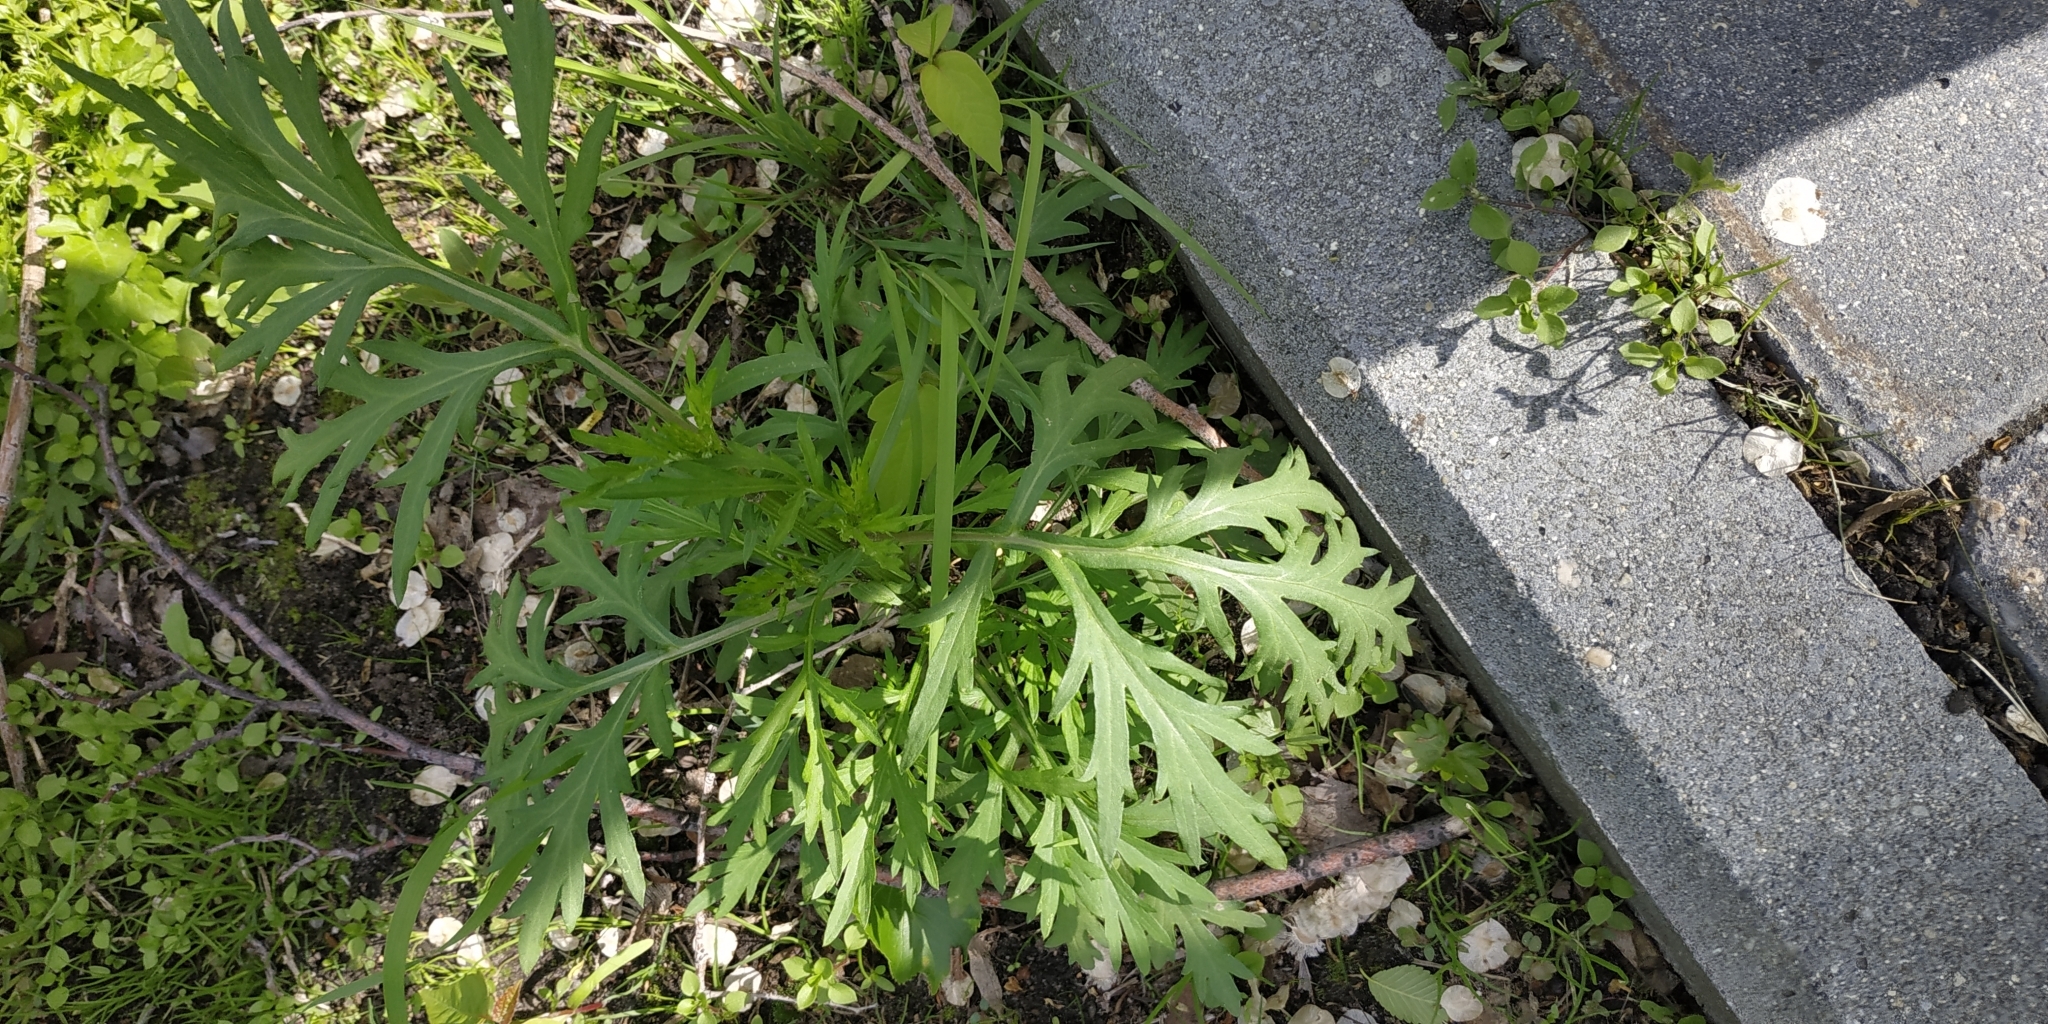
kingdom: Plantae
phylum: Tracheophyta
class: Magnoliopsida
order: Asterales
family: Asteraceae
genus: Artemisia
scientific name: Artemisia vulgaris
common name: Mugwort
